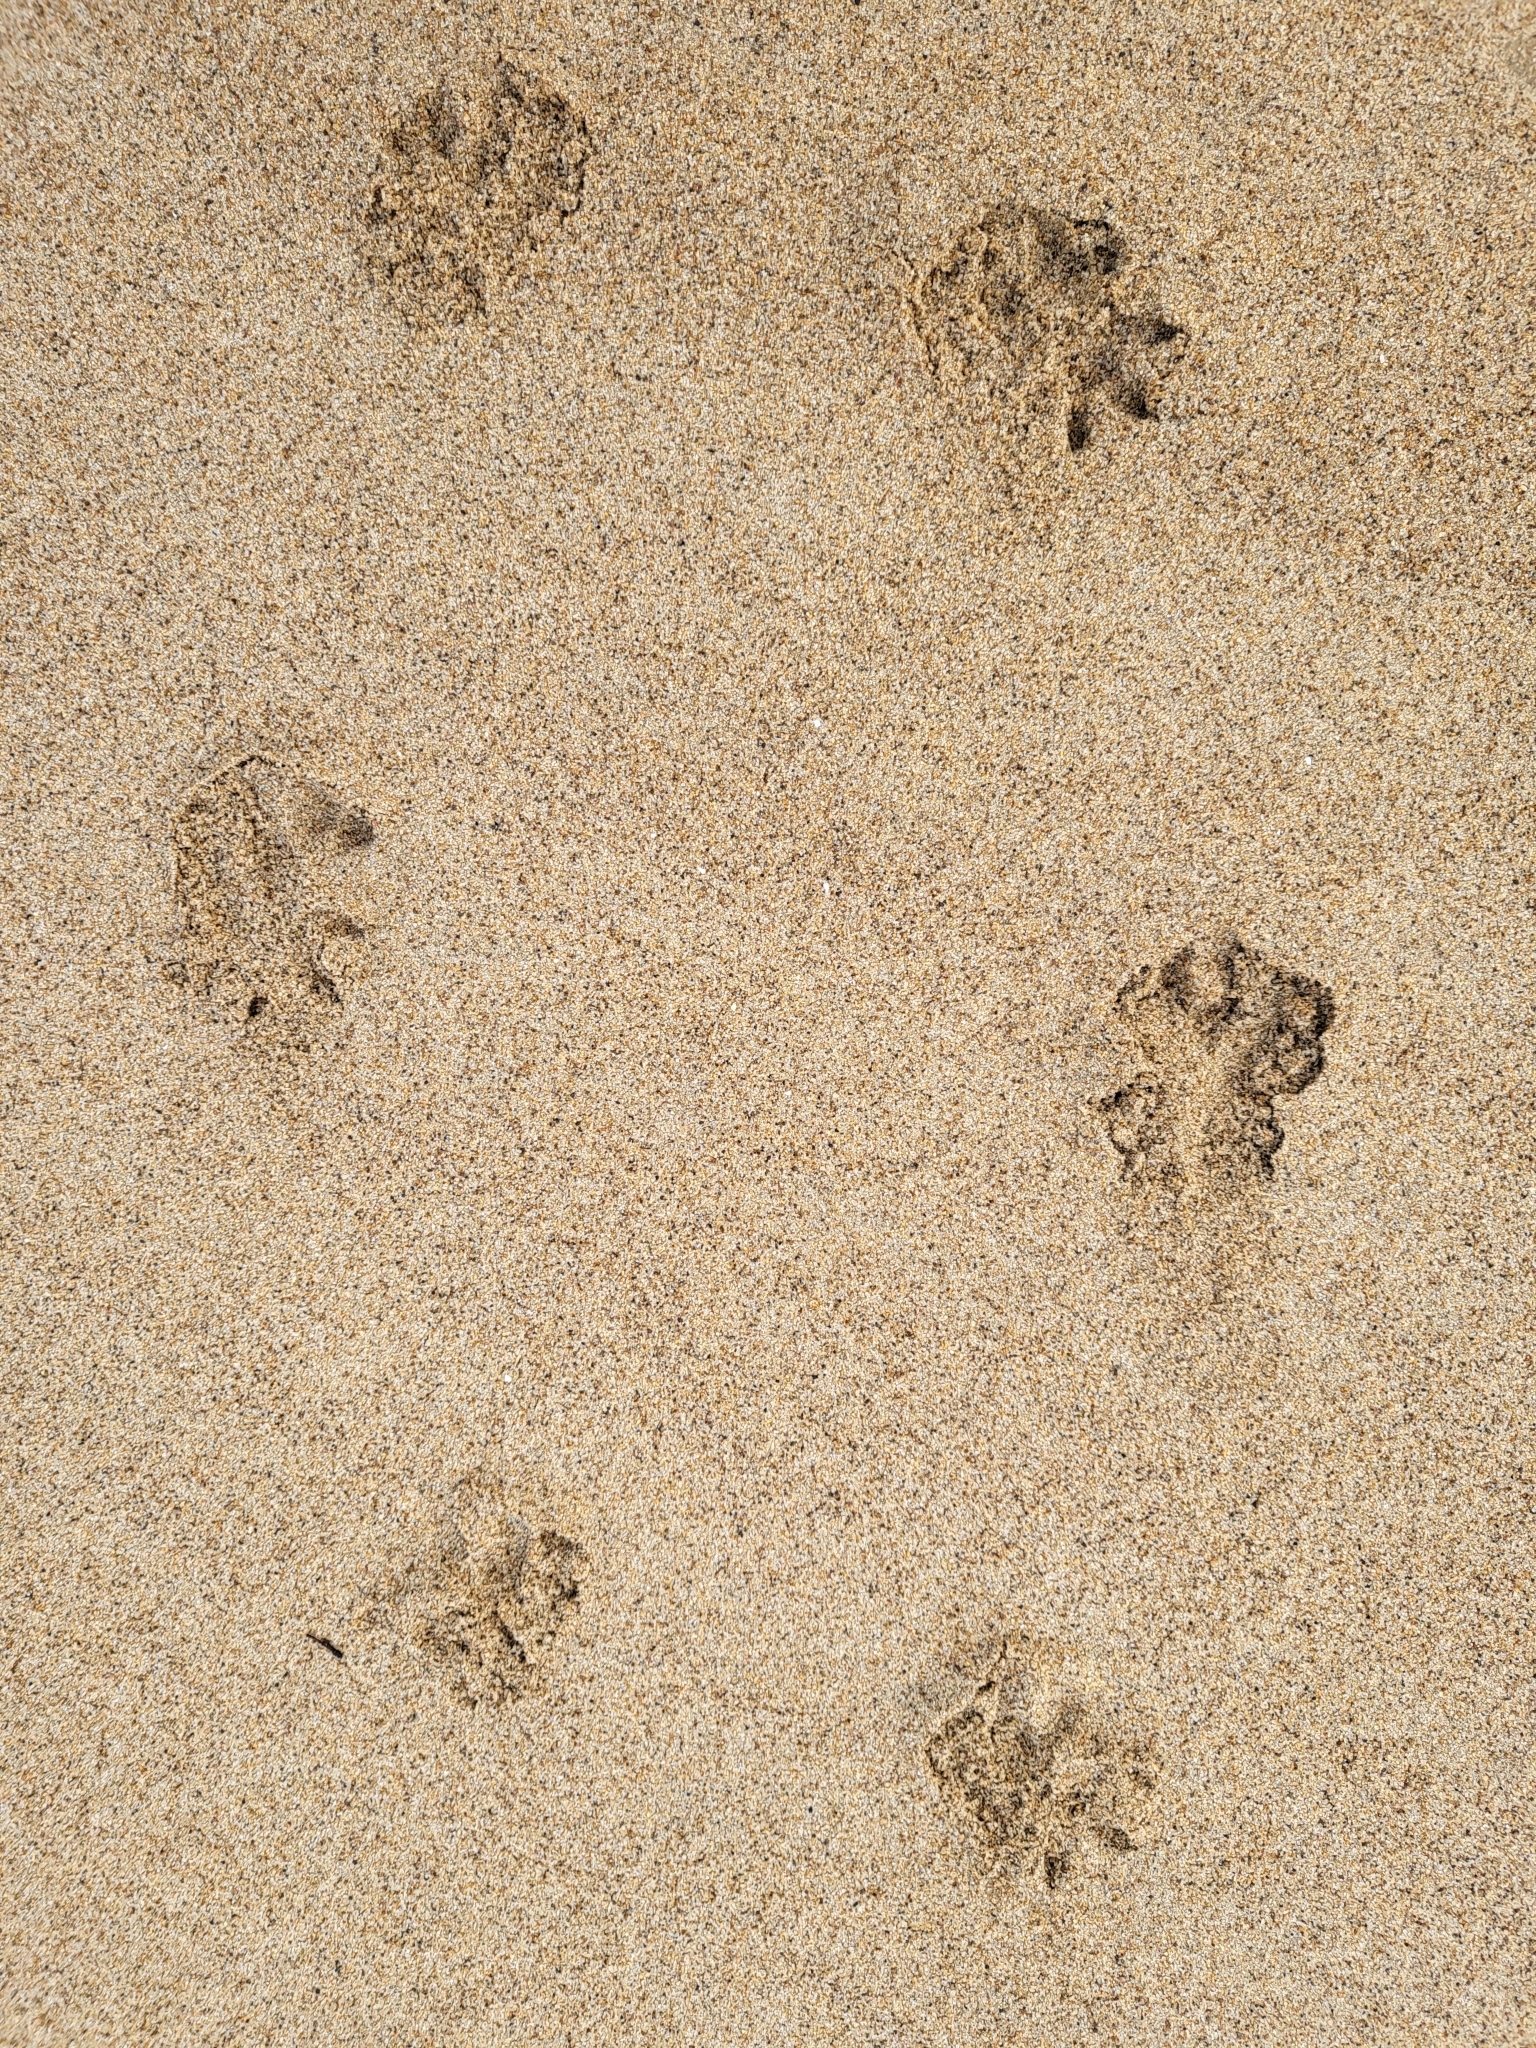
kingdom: Animalia
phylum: Chordata
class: Mammalia
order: Didelphimorphia
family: Didelphidae
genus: Didelphis
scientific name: Didelphis virginiana
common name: Virginia opossum
